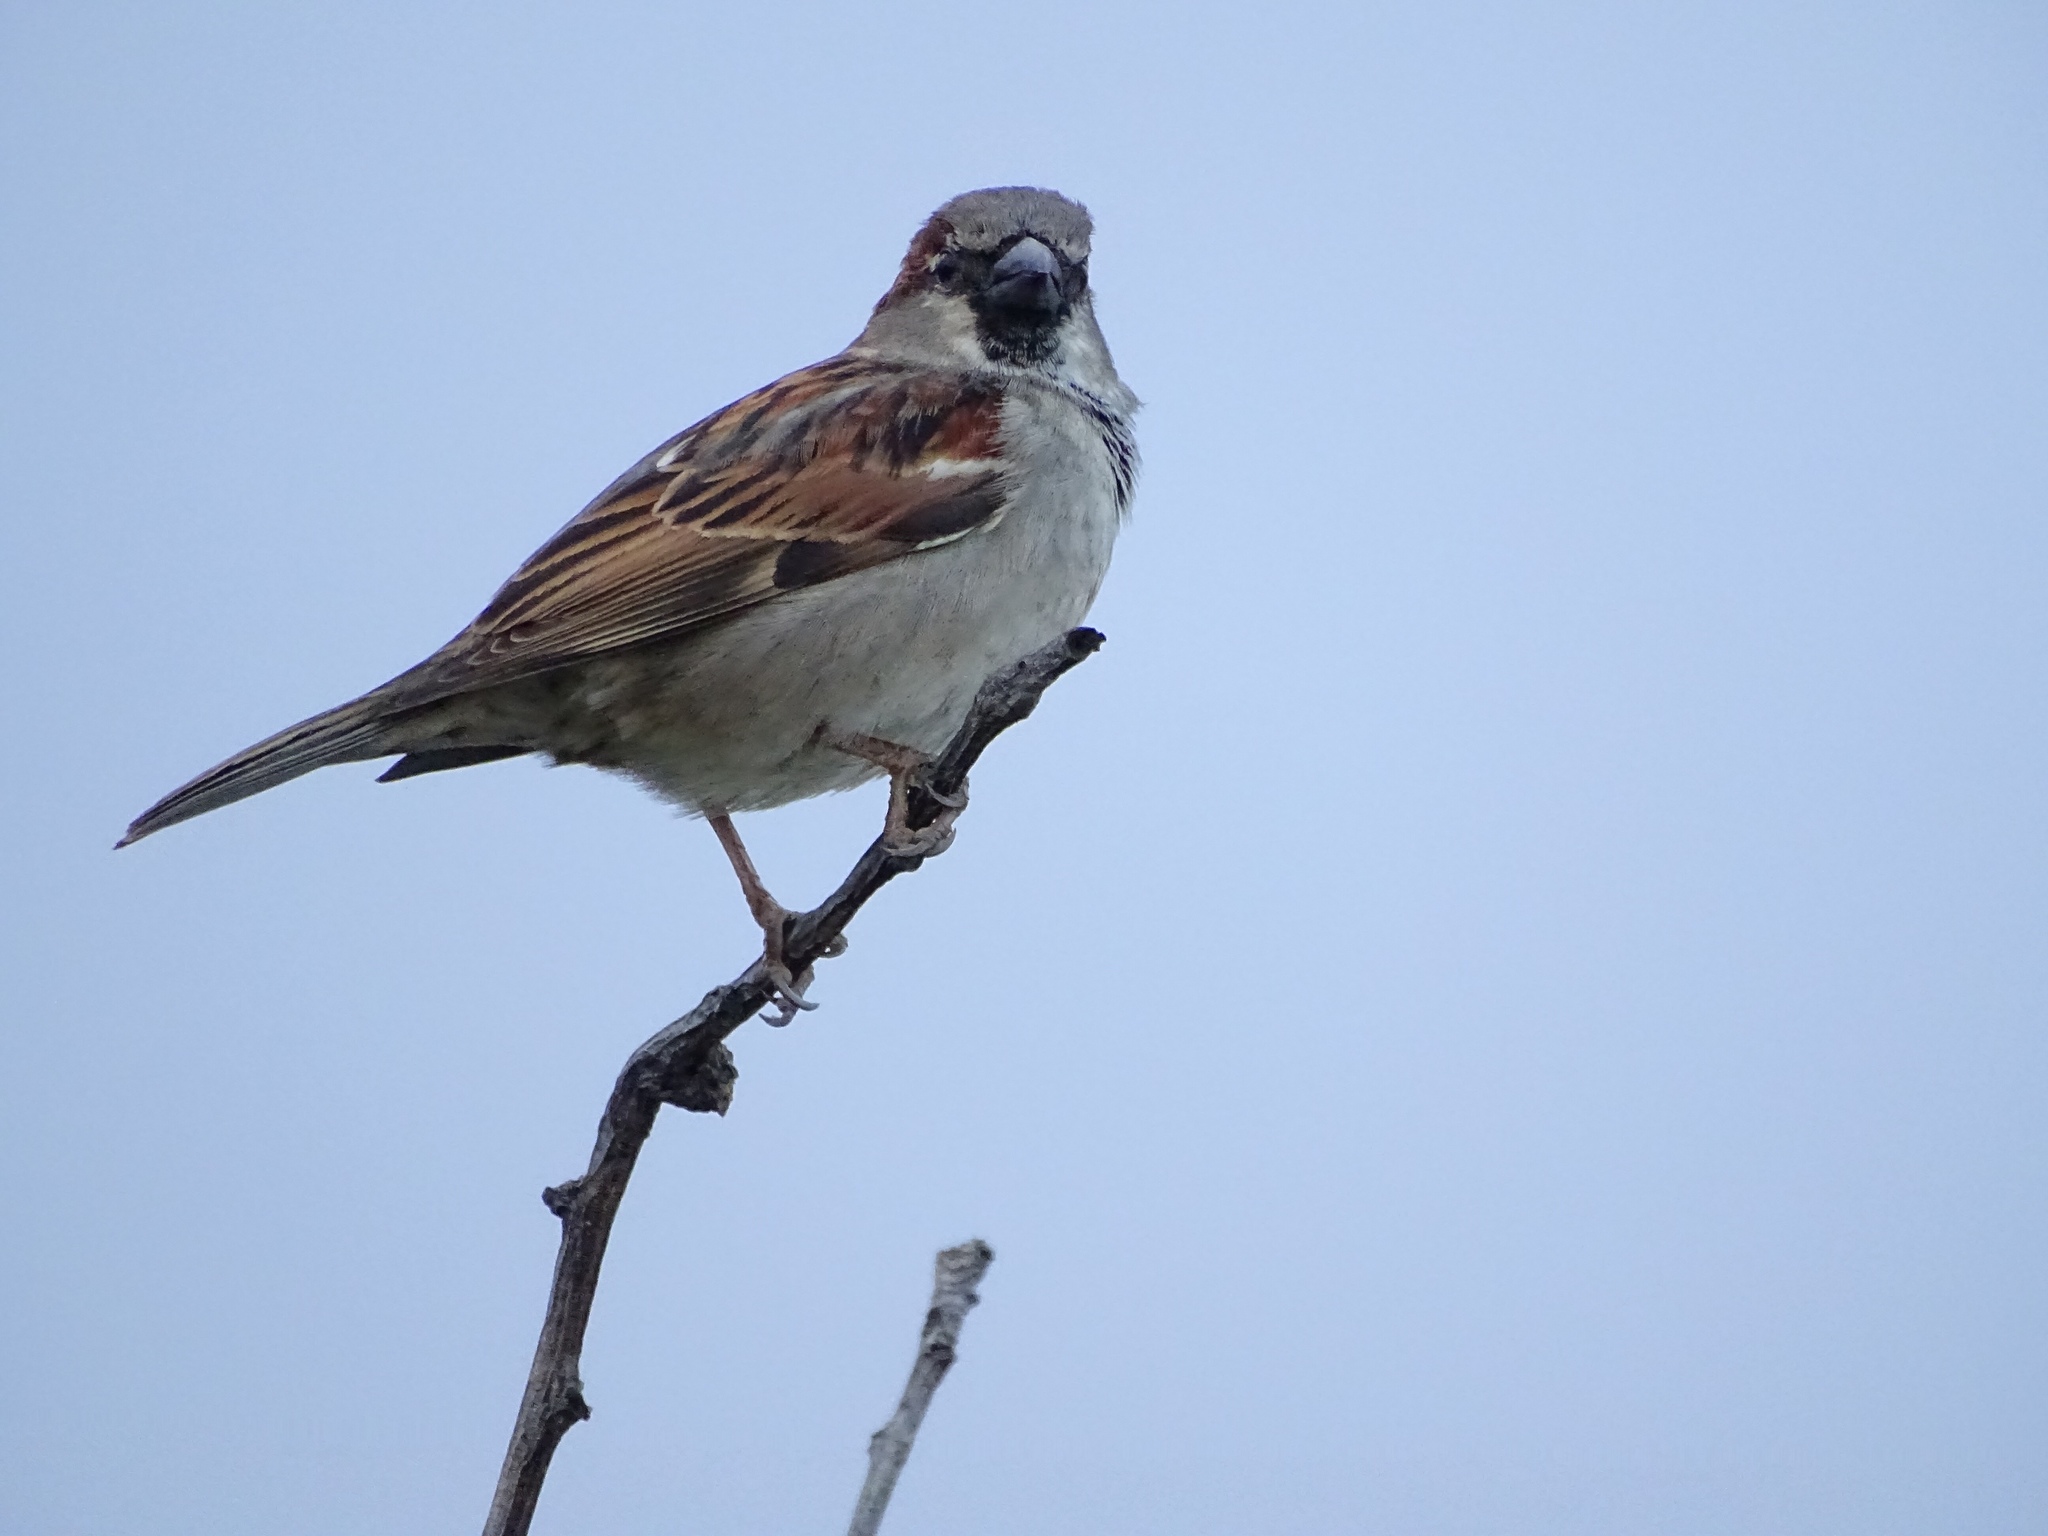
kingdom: Animalia
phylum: Chordata
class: Aves
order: Passeriformes
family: Passeridae
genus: Passer
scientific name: Passer domesticus
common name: House sparrow
